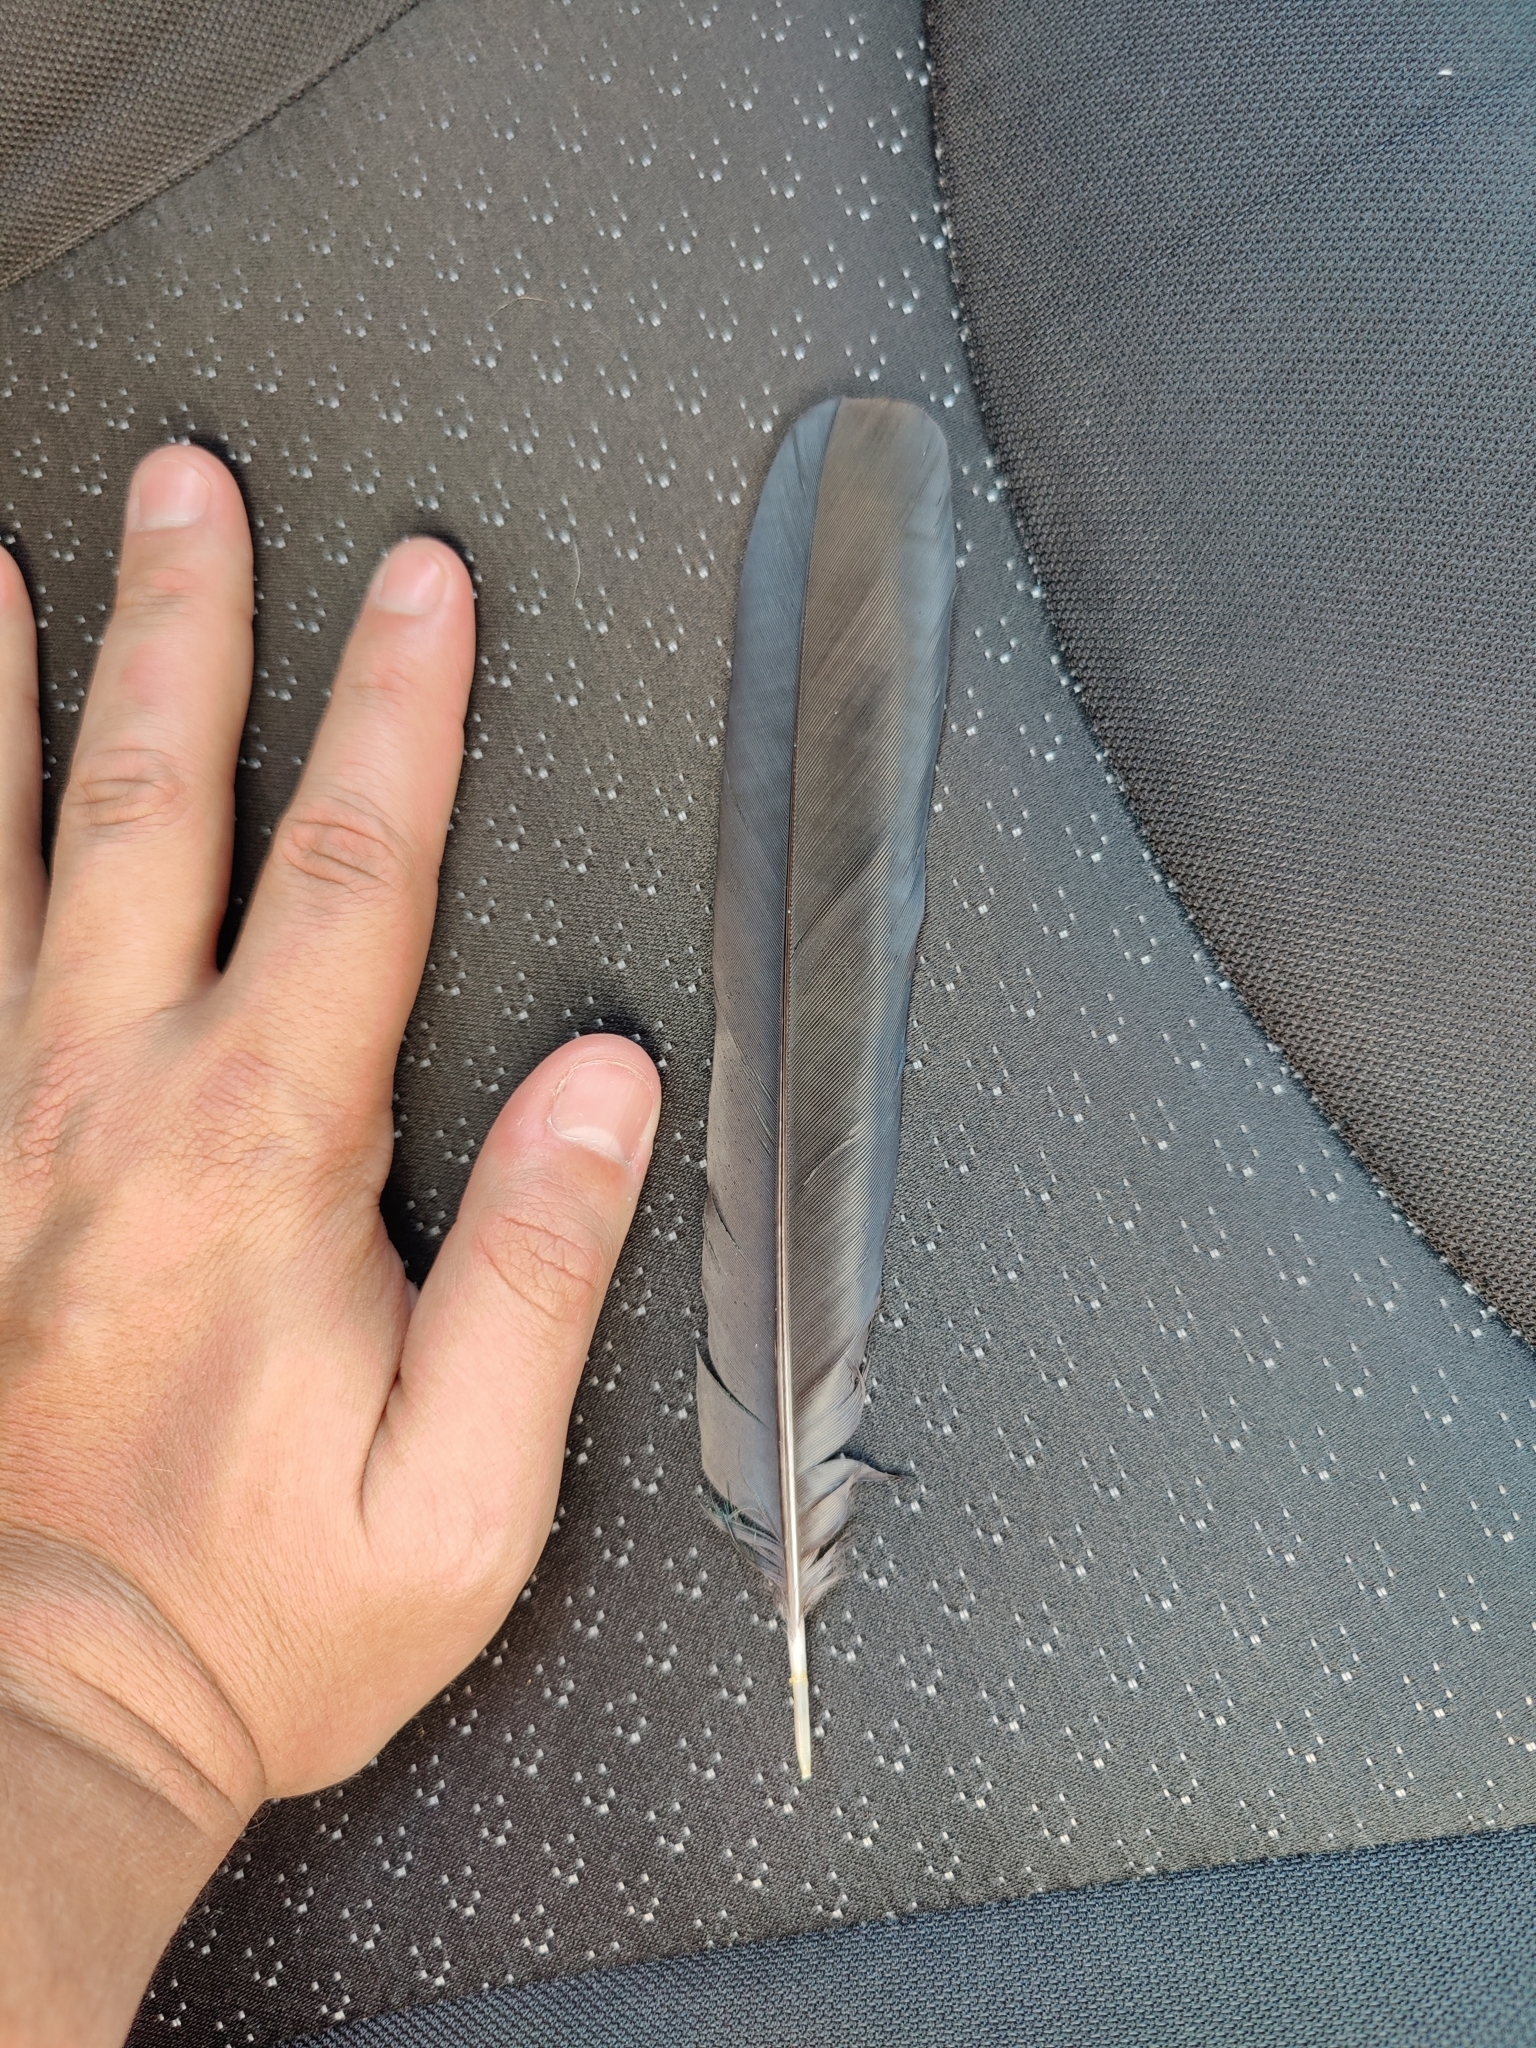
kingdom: Animalia
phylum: Chordata
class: Aves
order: Passeriformes
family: Corvidae
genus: Pica
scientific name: Pica pica
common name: Eurasian magpie
